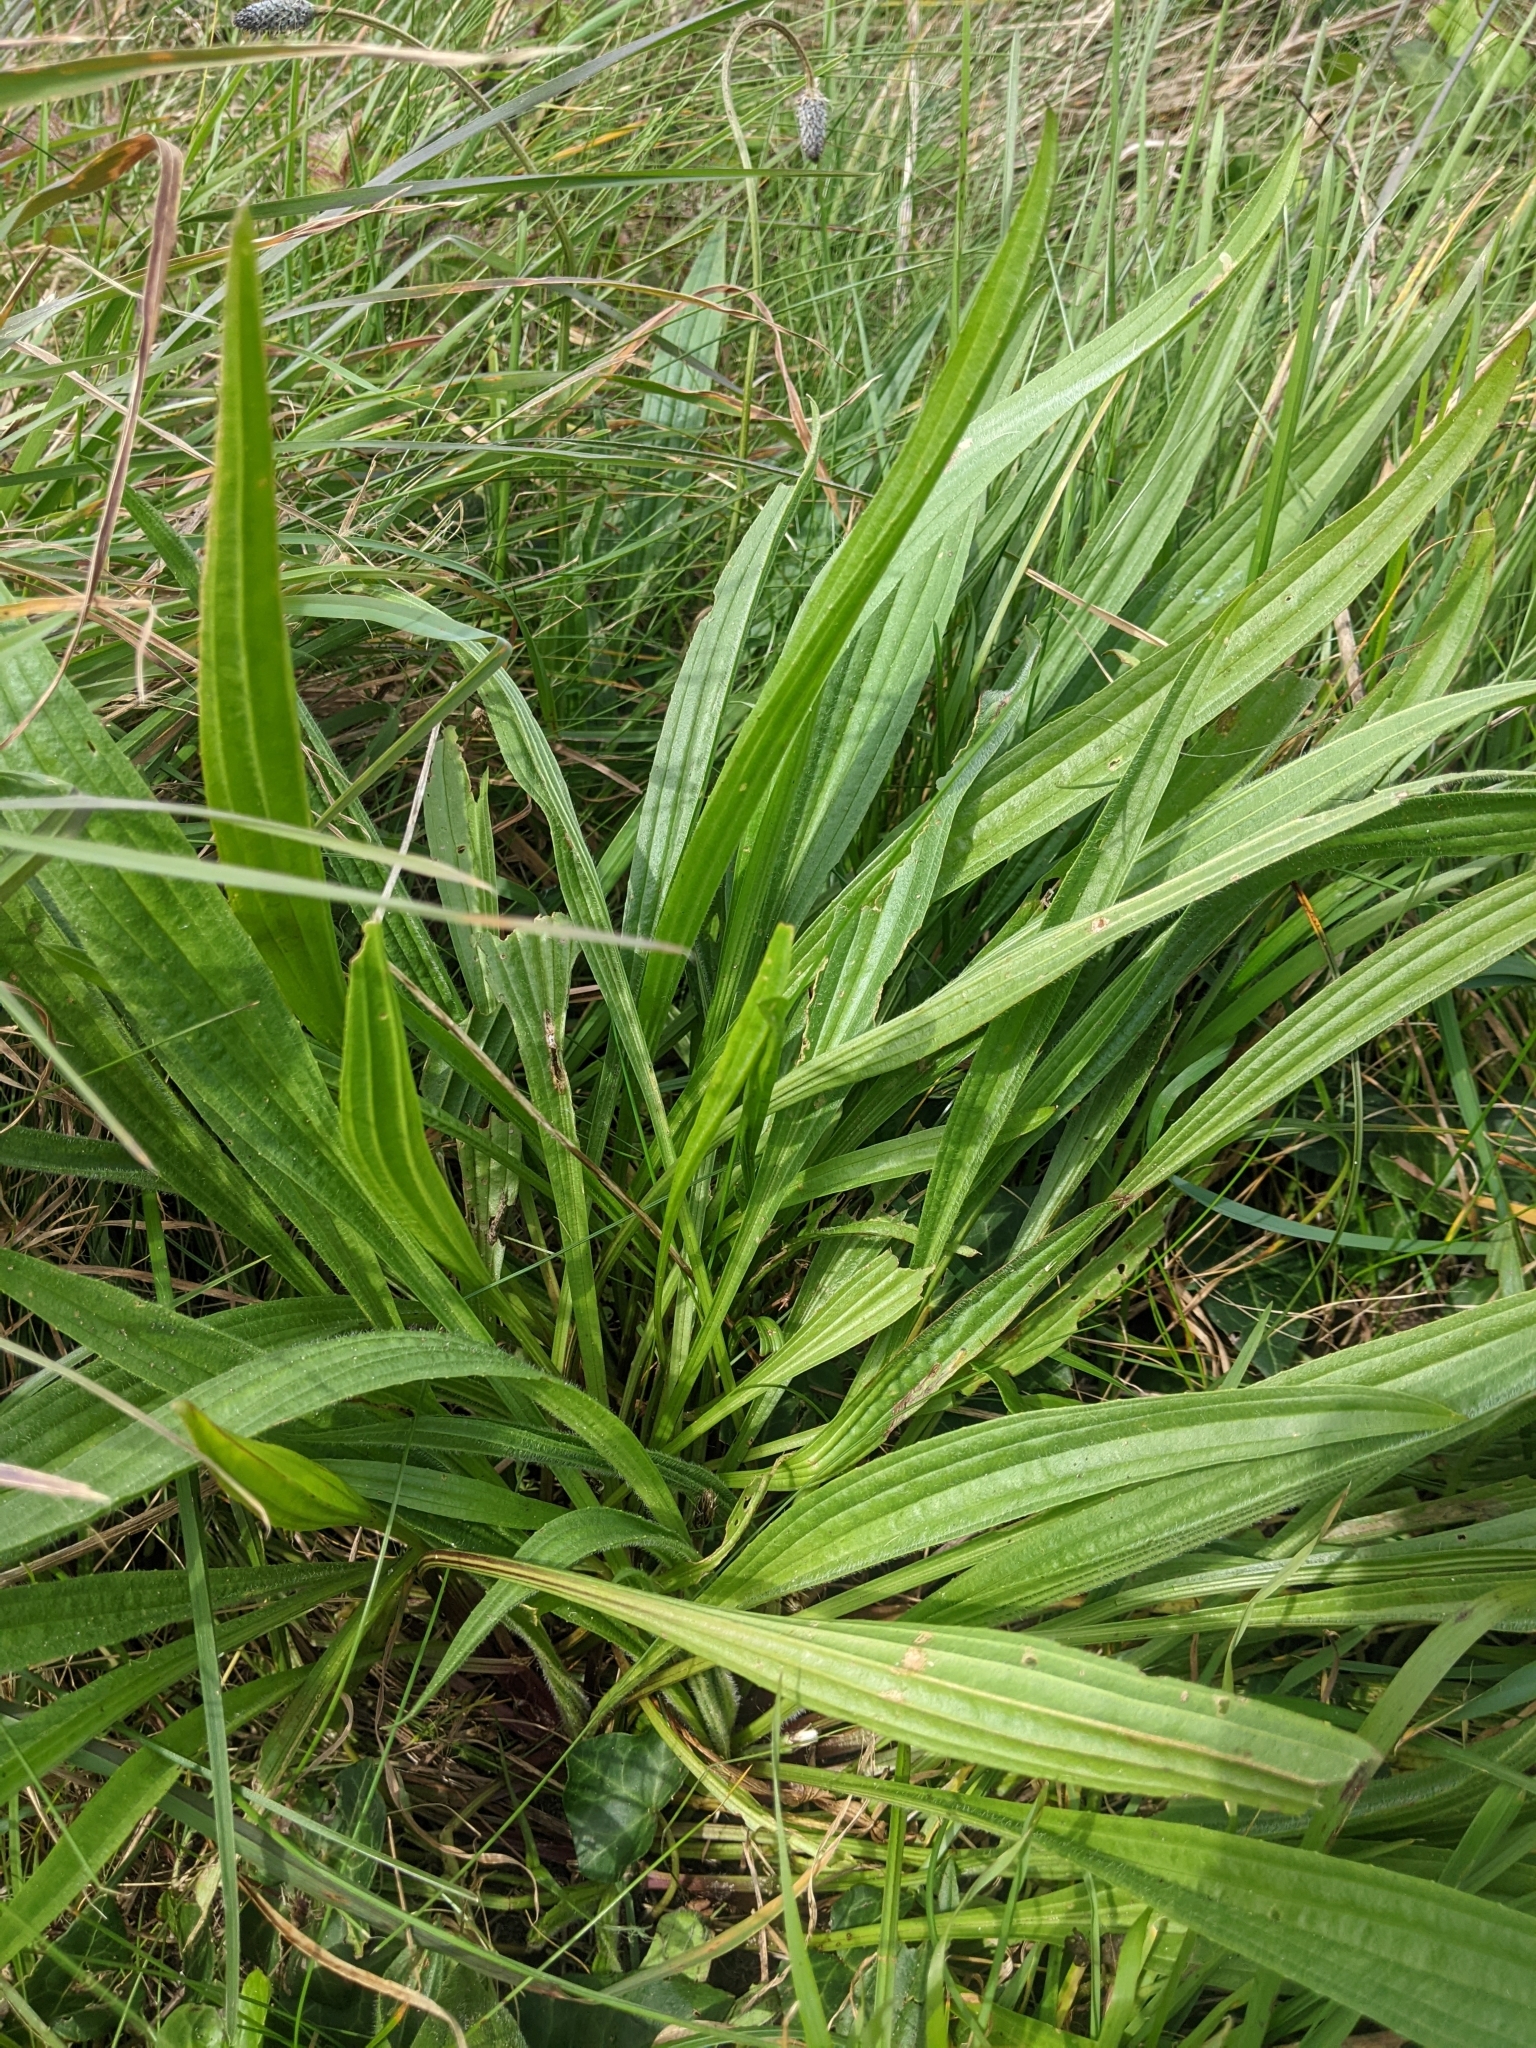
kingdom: Plantae
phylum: Tracheophyta
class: Magnoliopsida
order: Lamiales
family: Plantaginaceae
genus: Plantago
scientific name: Plantago lanceolata
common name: Ribwort plantain
